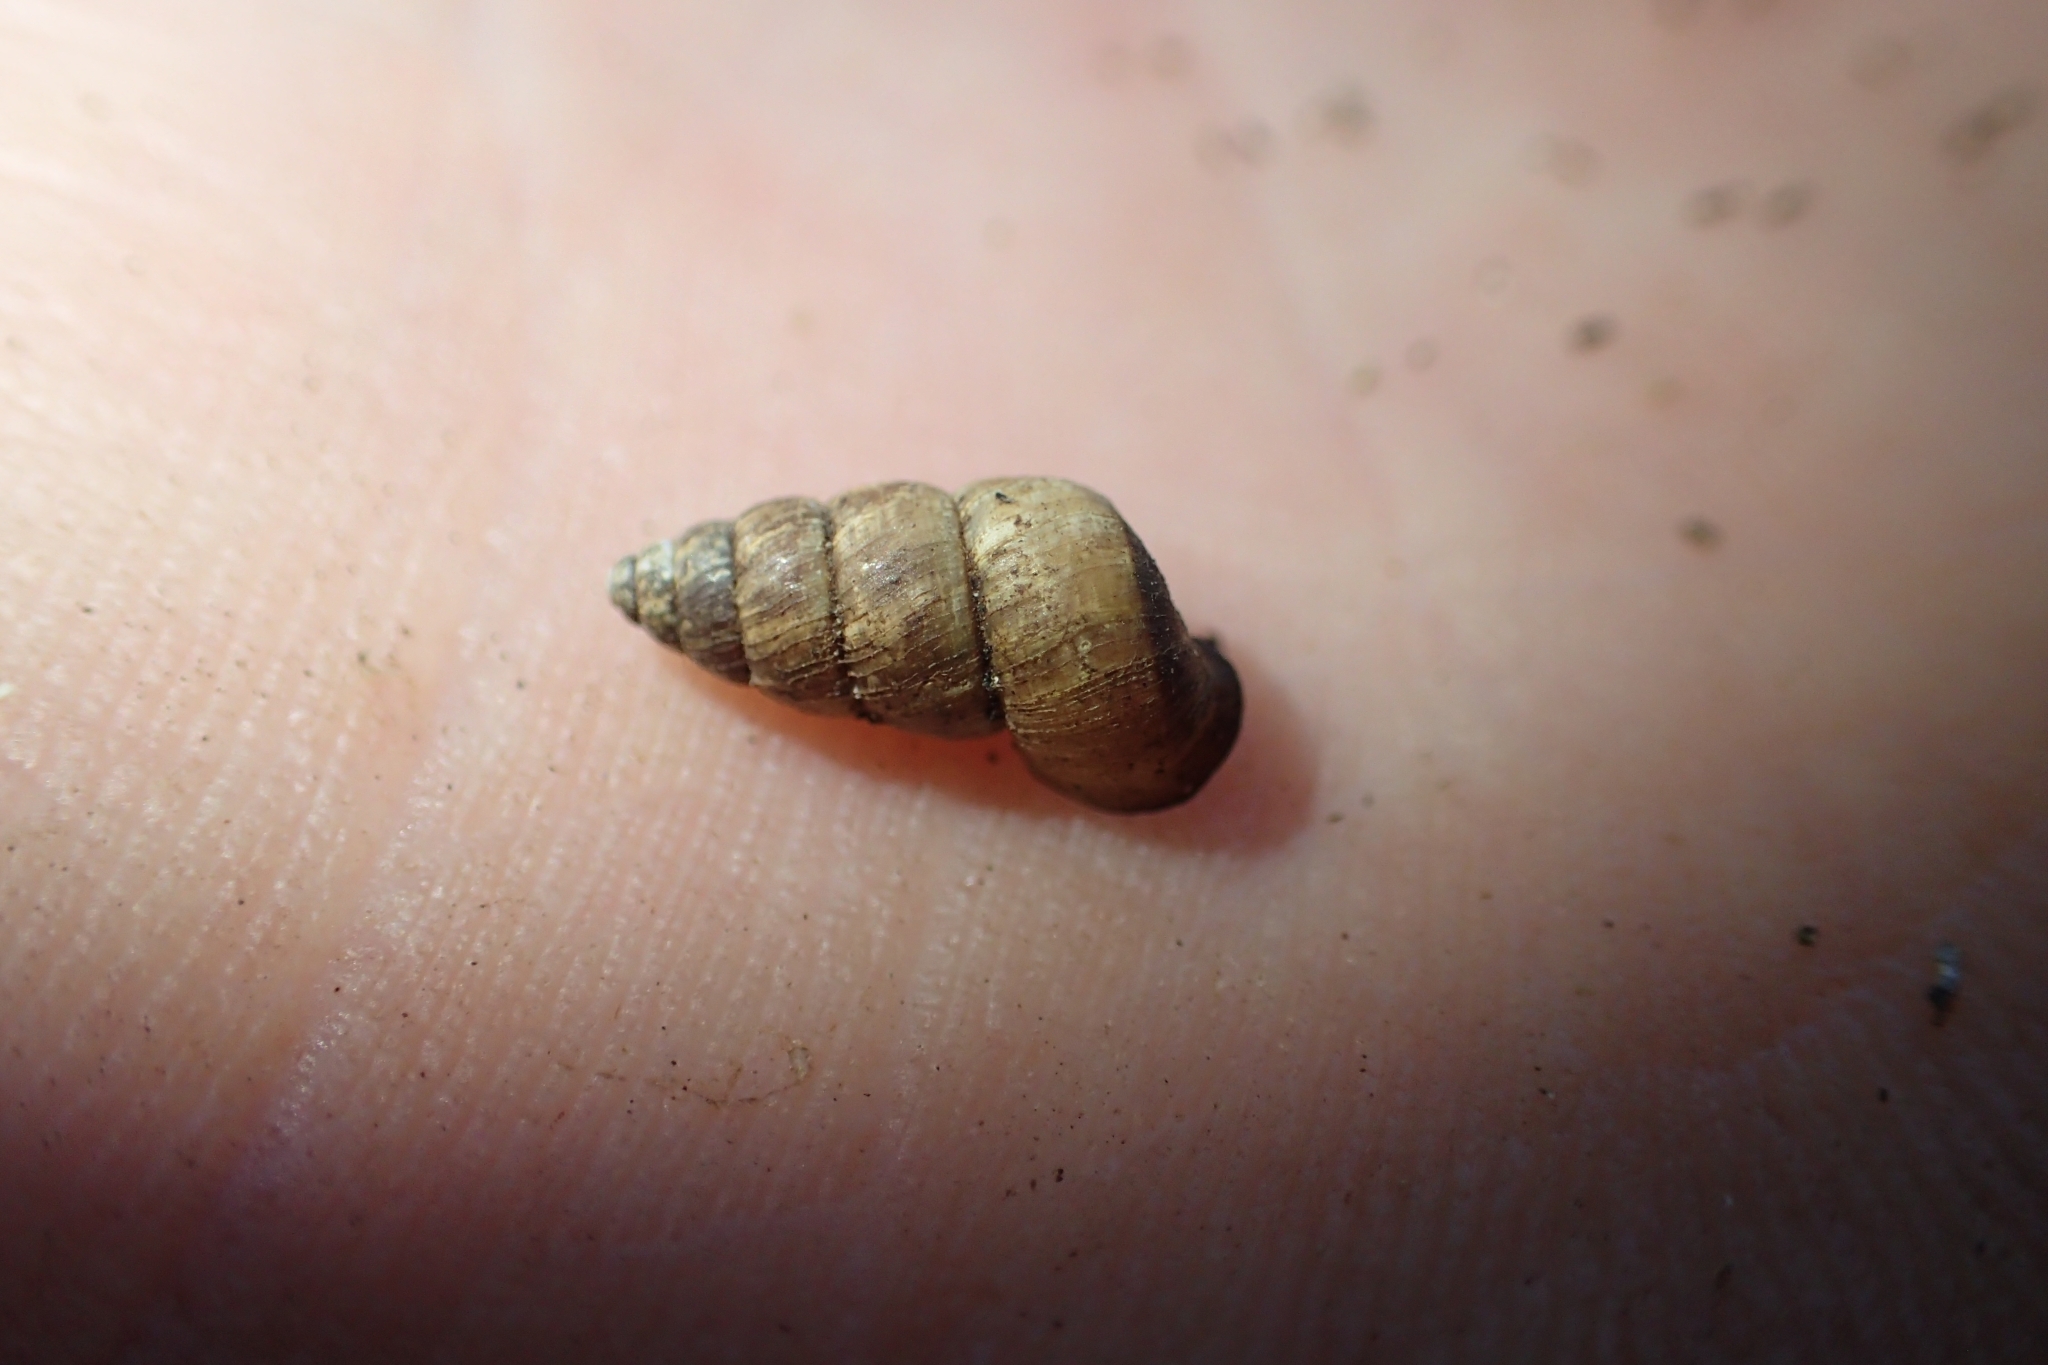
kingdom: Animalia
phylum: Mollusca
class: Gastropoda
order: Architaenioglossa
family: Pupinidae
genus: Liarea
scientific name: Liarea turriculata
